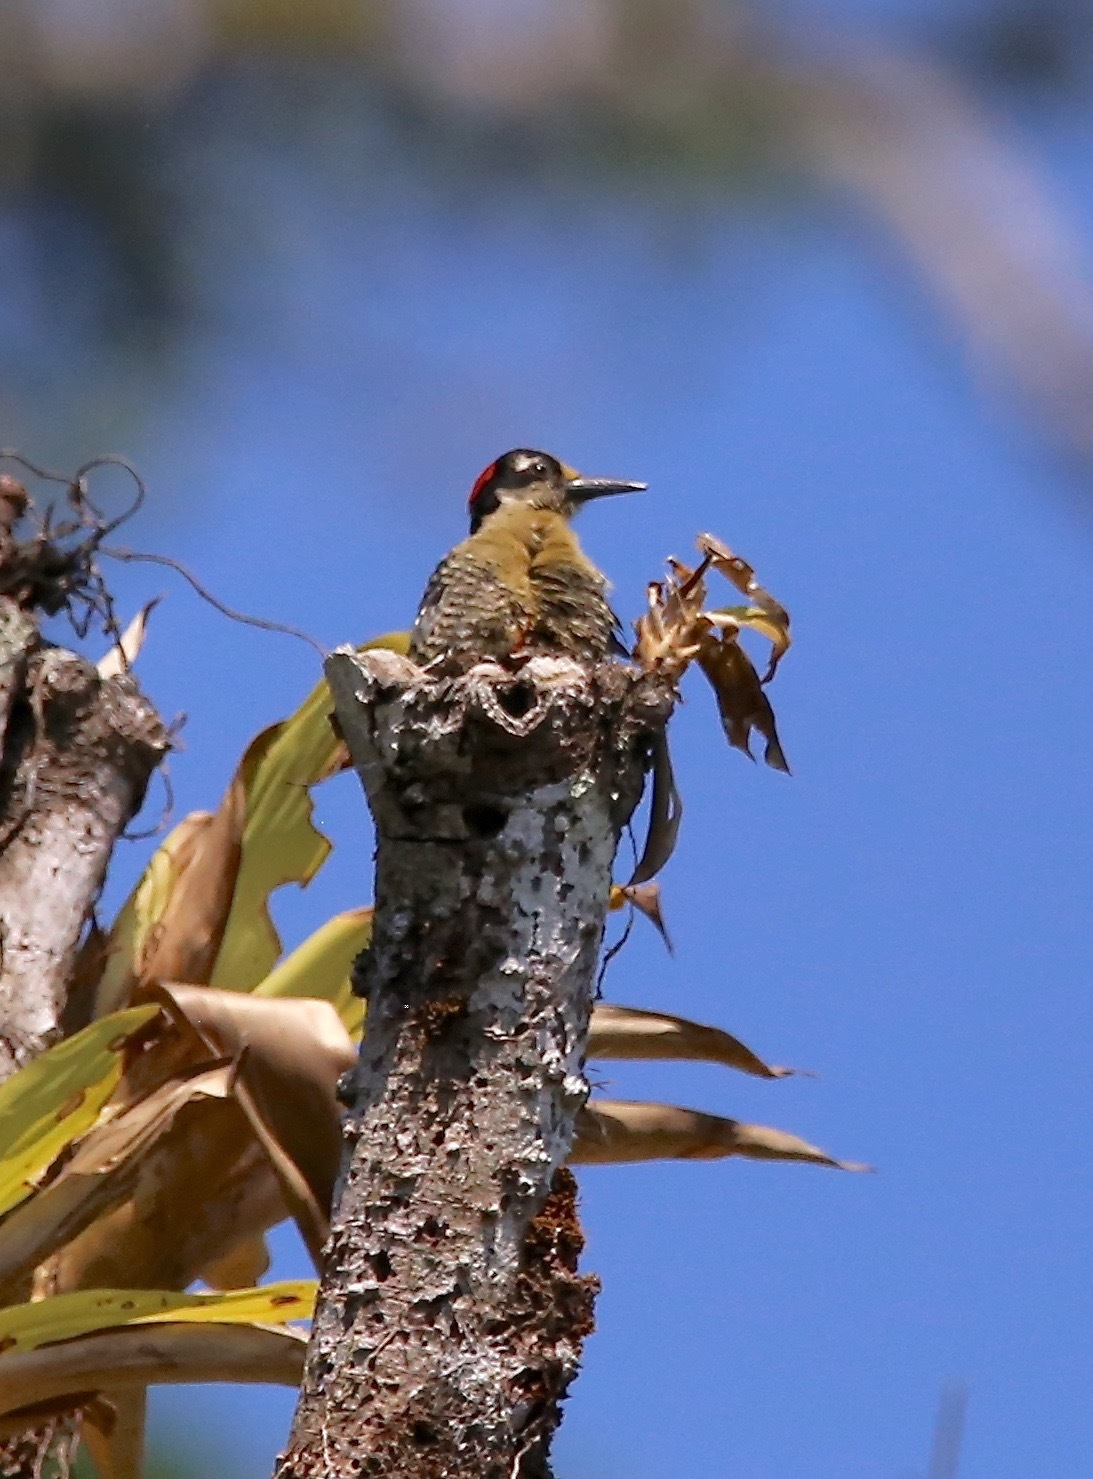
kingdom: Animalia
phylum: Chordata
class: Aves
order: Piciformes
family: Picidae
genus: Melanerpes
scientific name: Melanerpes pucherani
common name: Black-cheeked woodpecker
